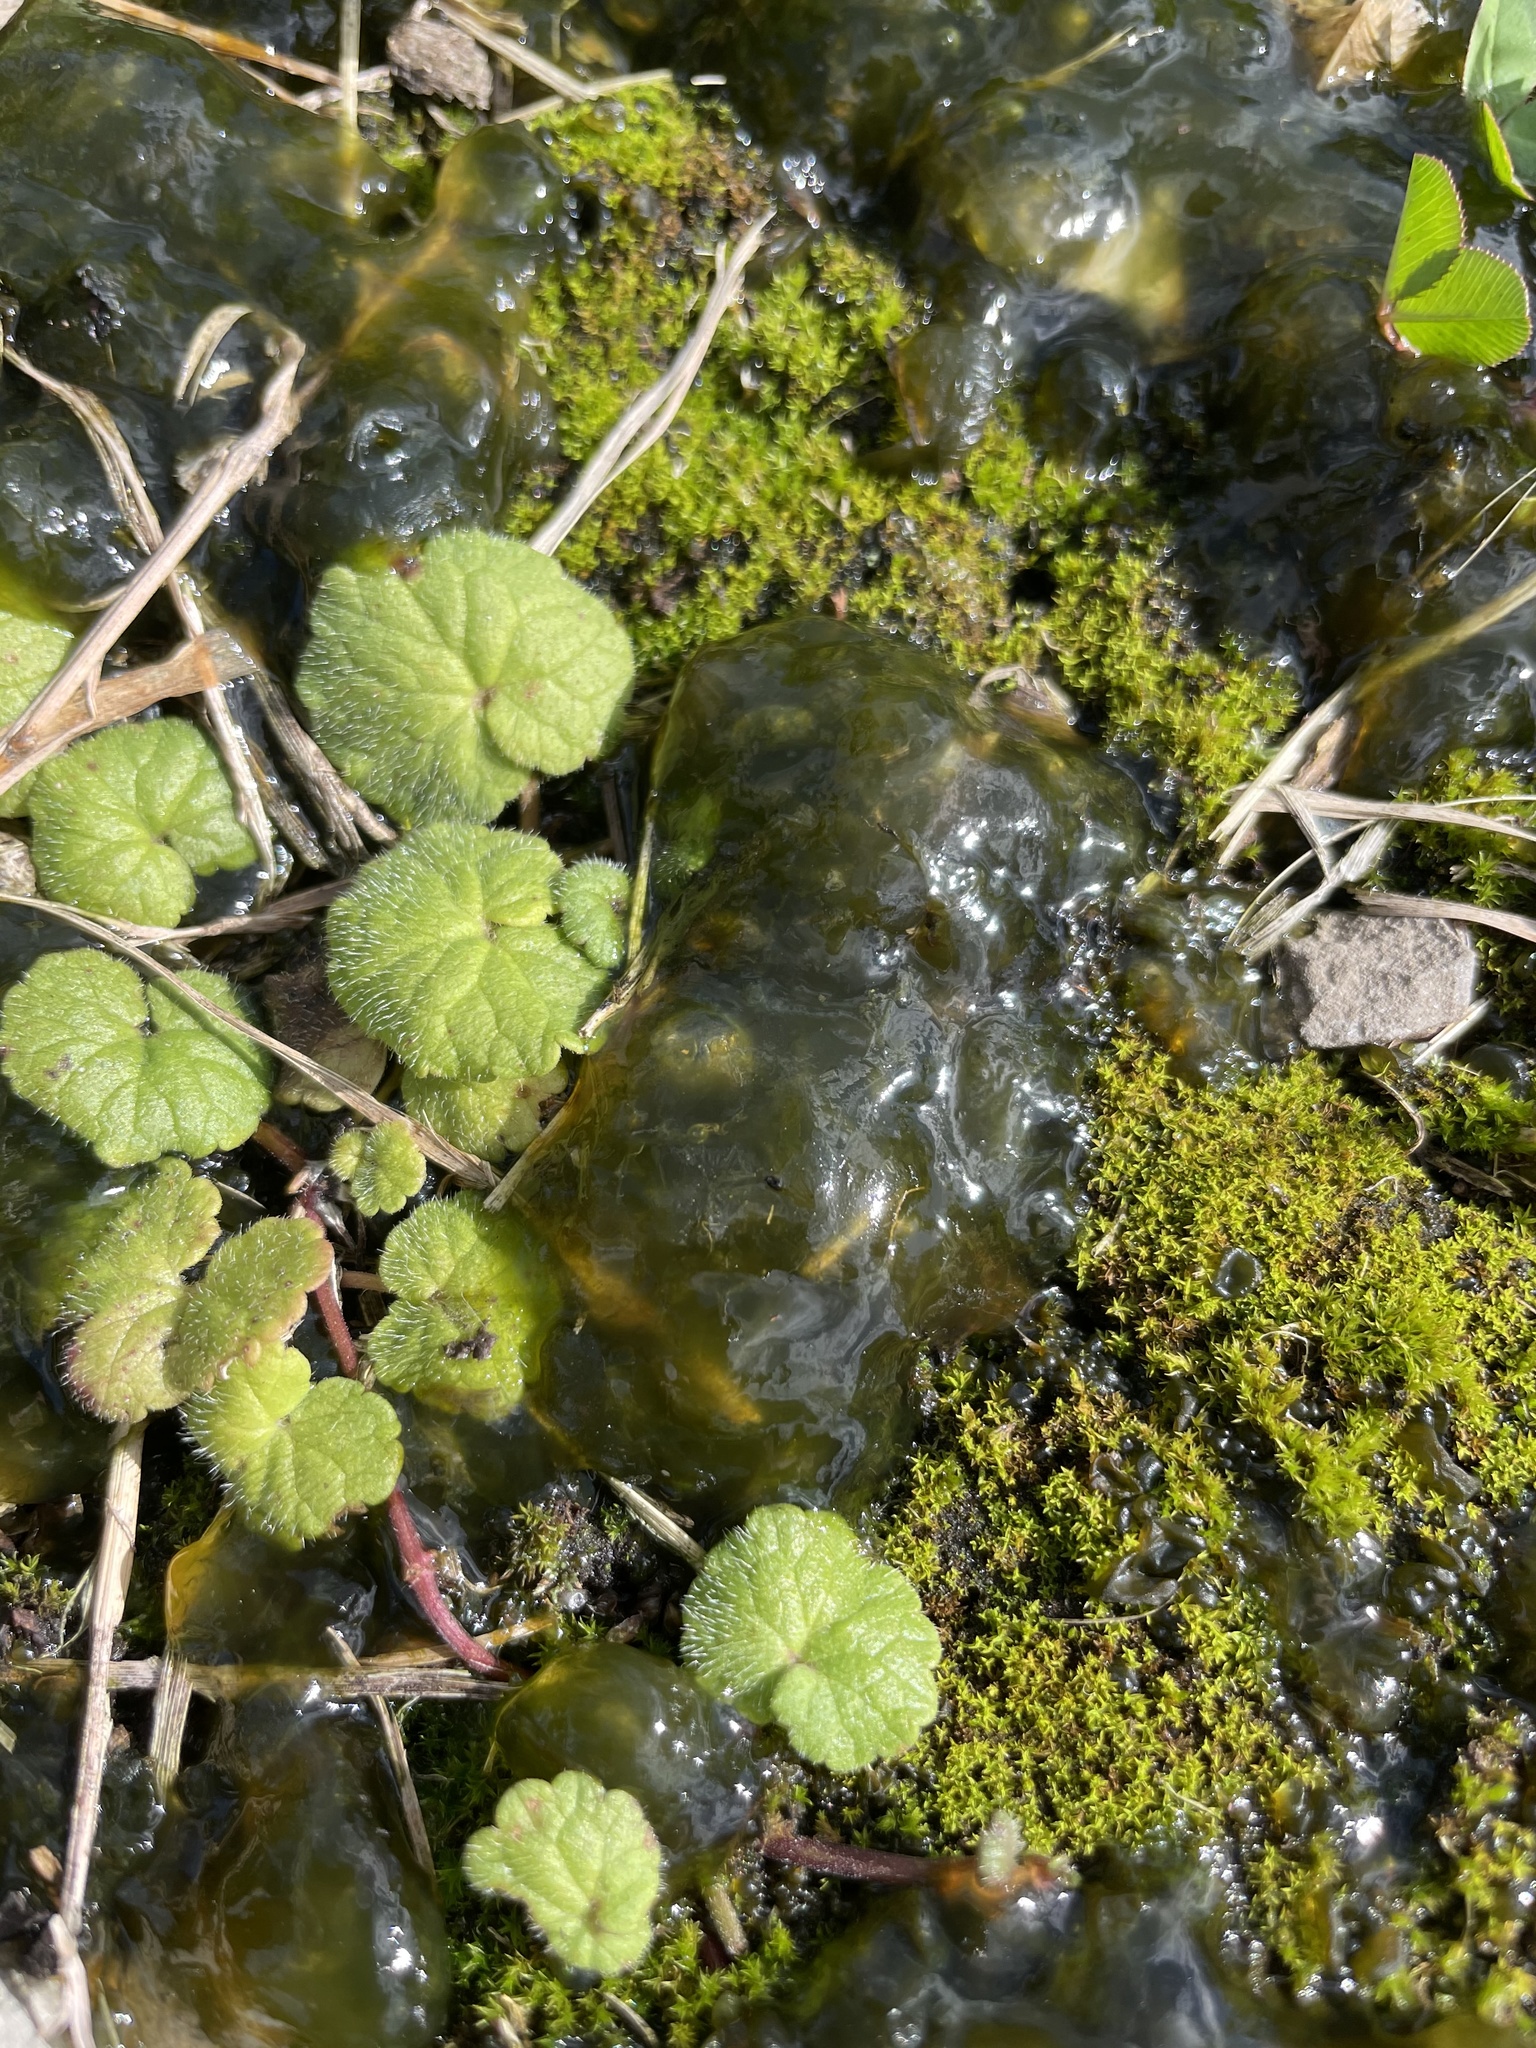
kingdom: Bacteria
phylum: Cyanobacteria
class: Cyanobacteriia
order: Cyanobacteriales
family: Nostocaceae
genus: Nostoc
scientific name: Nostoc commune
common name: Star jelly
